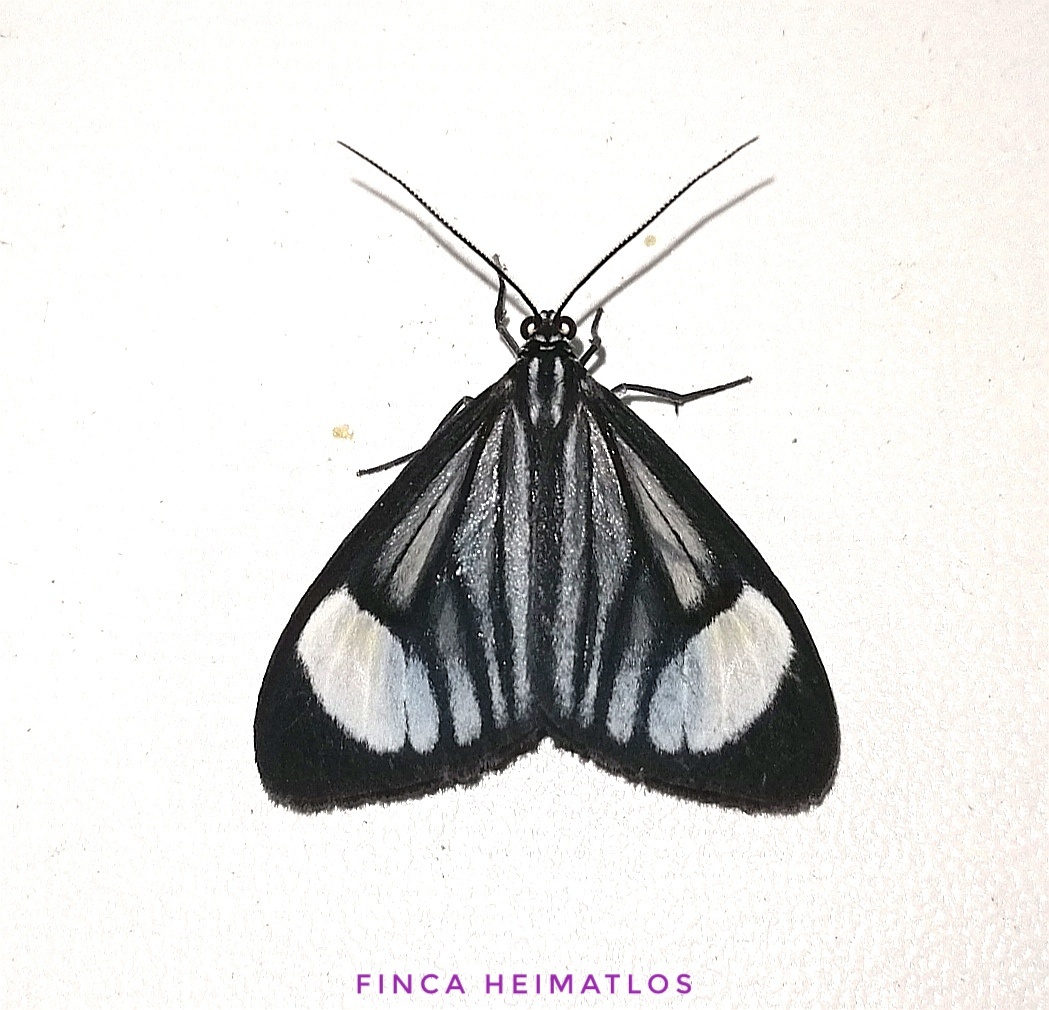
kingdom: Animalia
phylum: Arthropoda
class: Insecta
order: Lepidoptera
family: Notodontidae
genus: Monocreagra
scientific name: Monocreagra pheloides
